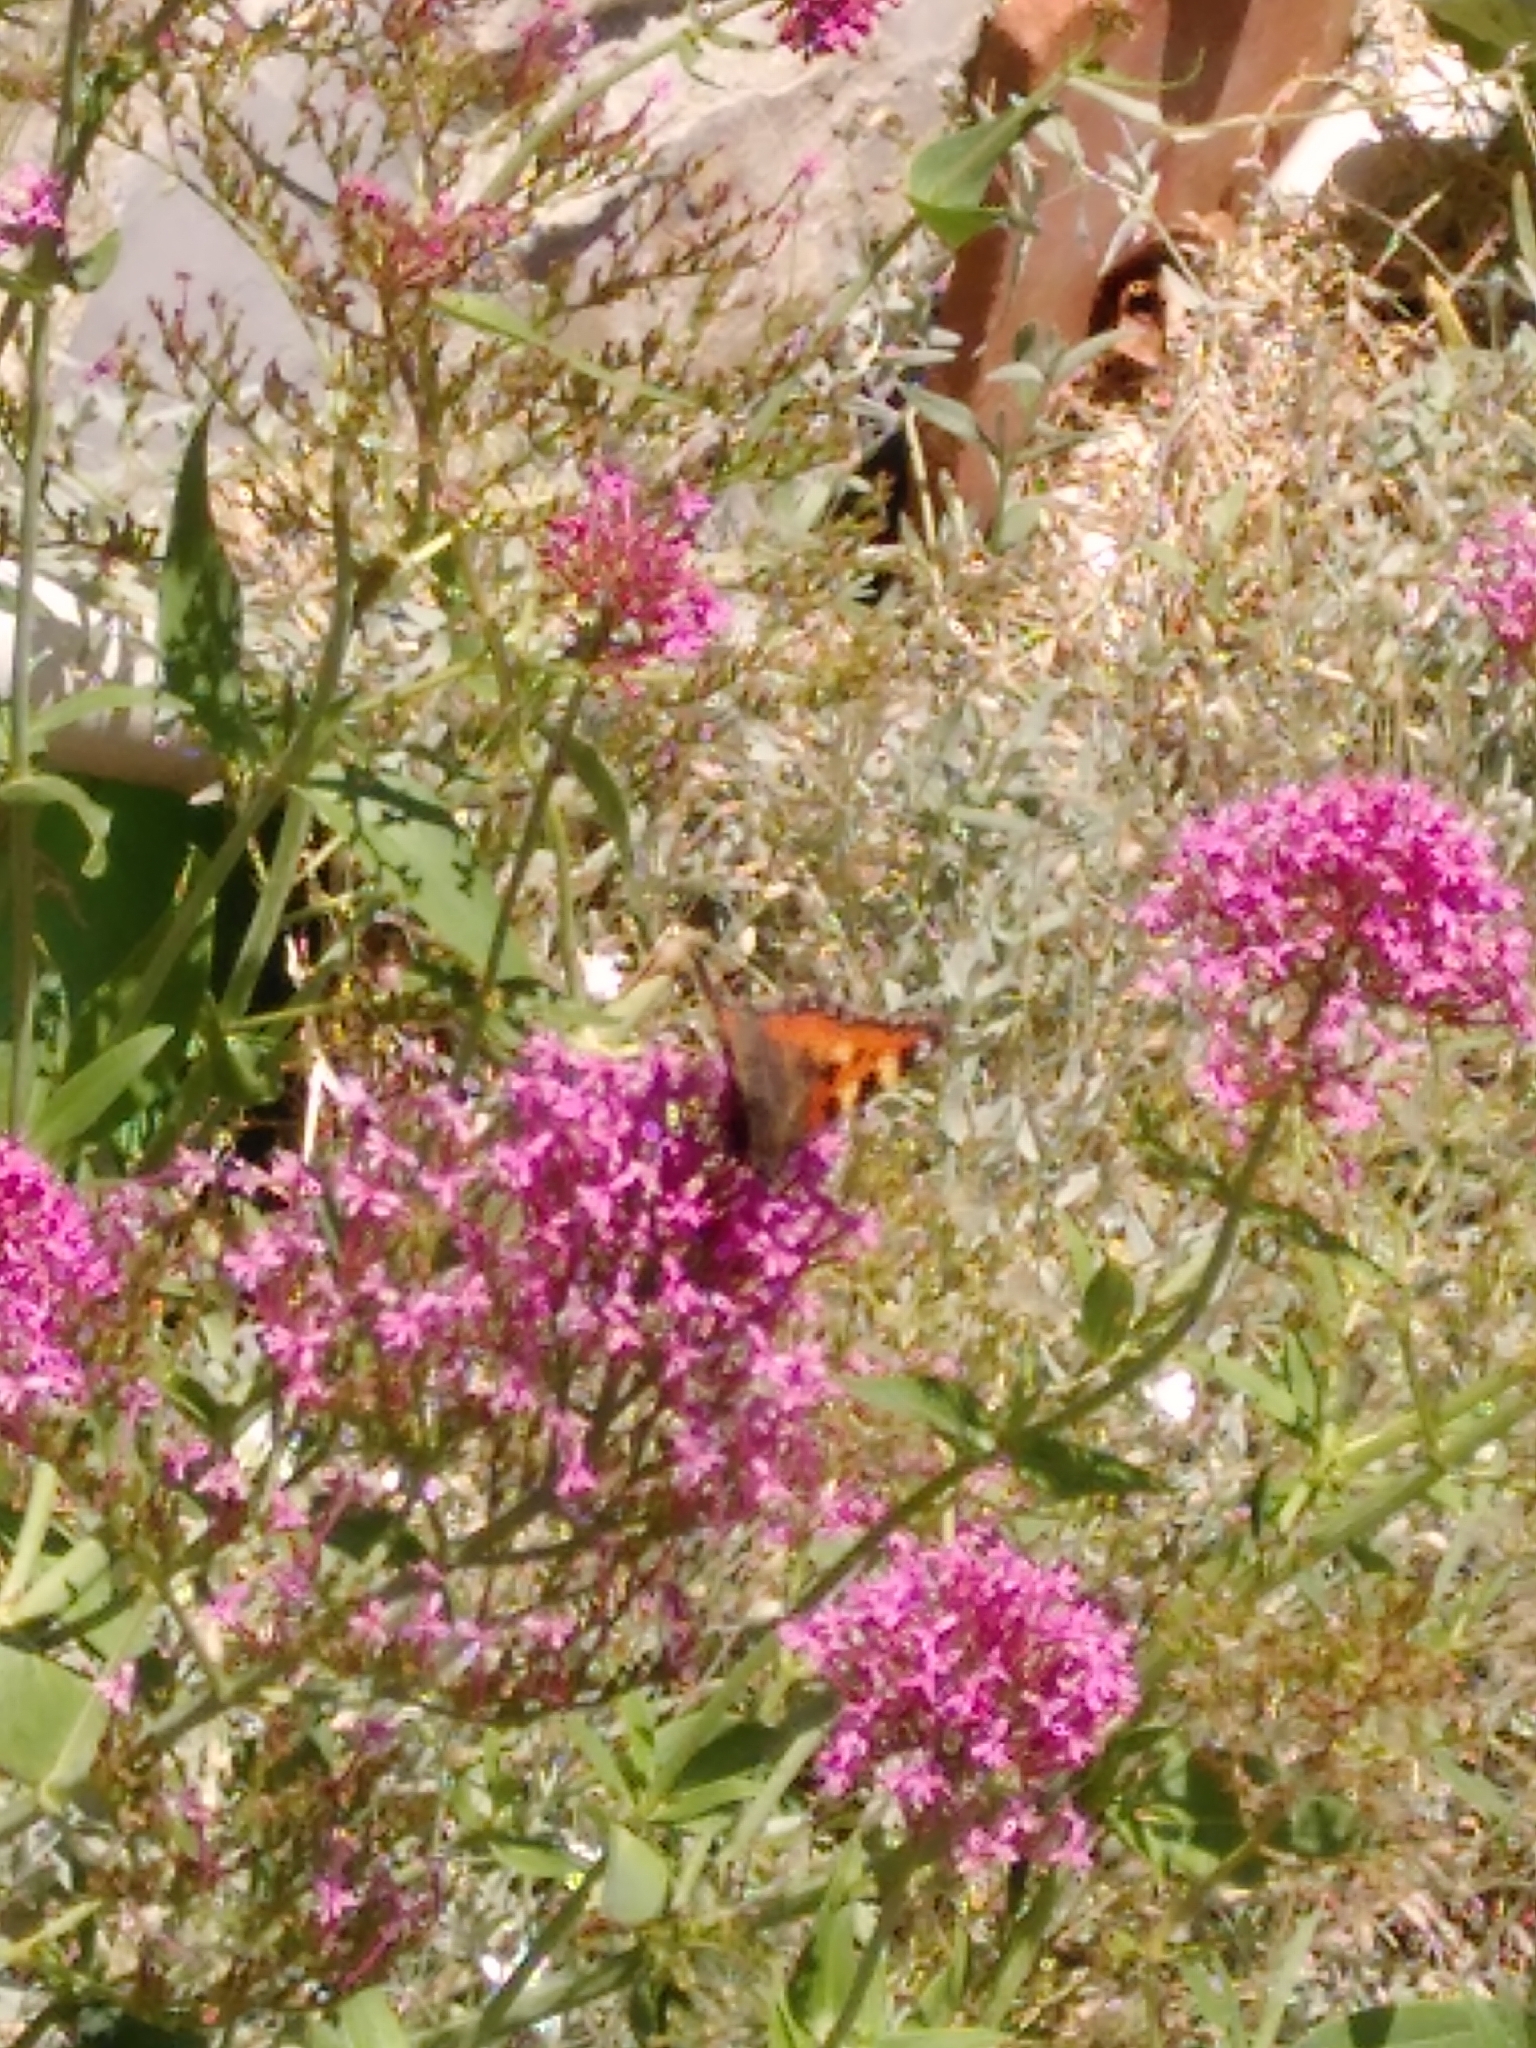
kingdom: Animalia
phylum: Arthropoda
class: Insecta
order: Lepidoptera
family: Nymphalidae
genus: Aglais
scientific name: Aglais urticae
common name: Small tortoiseshell
